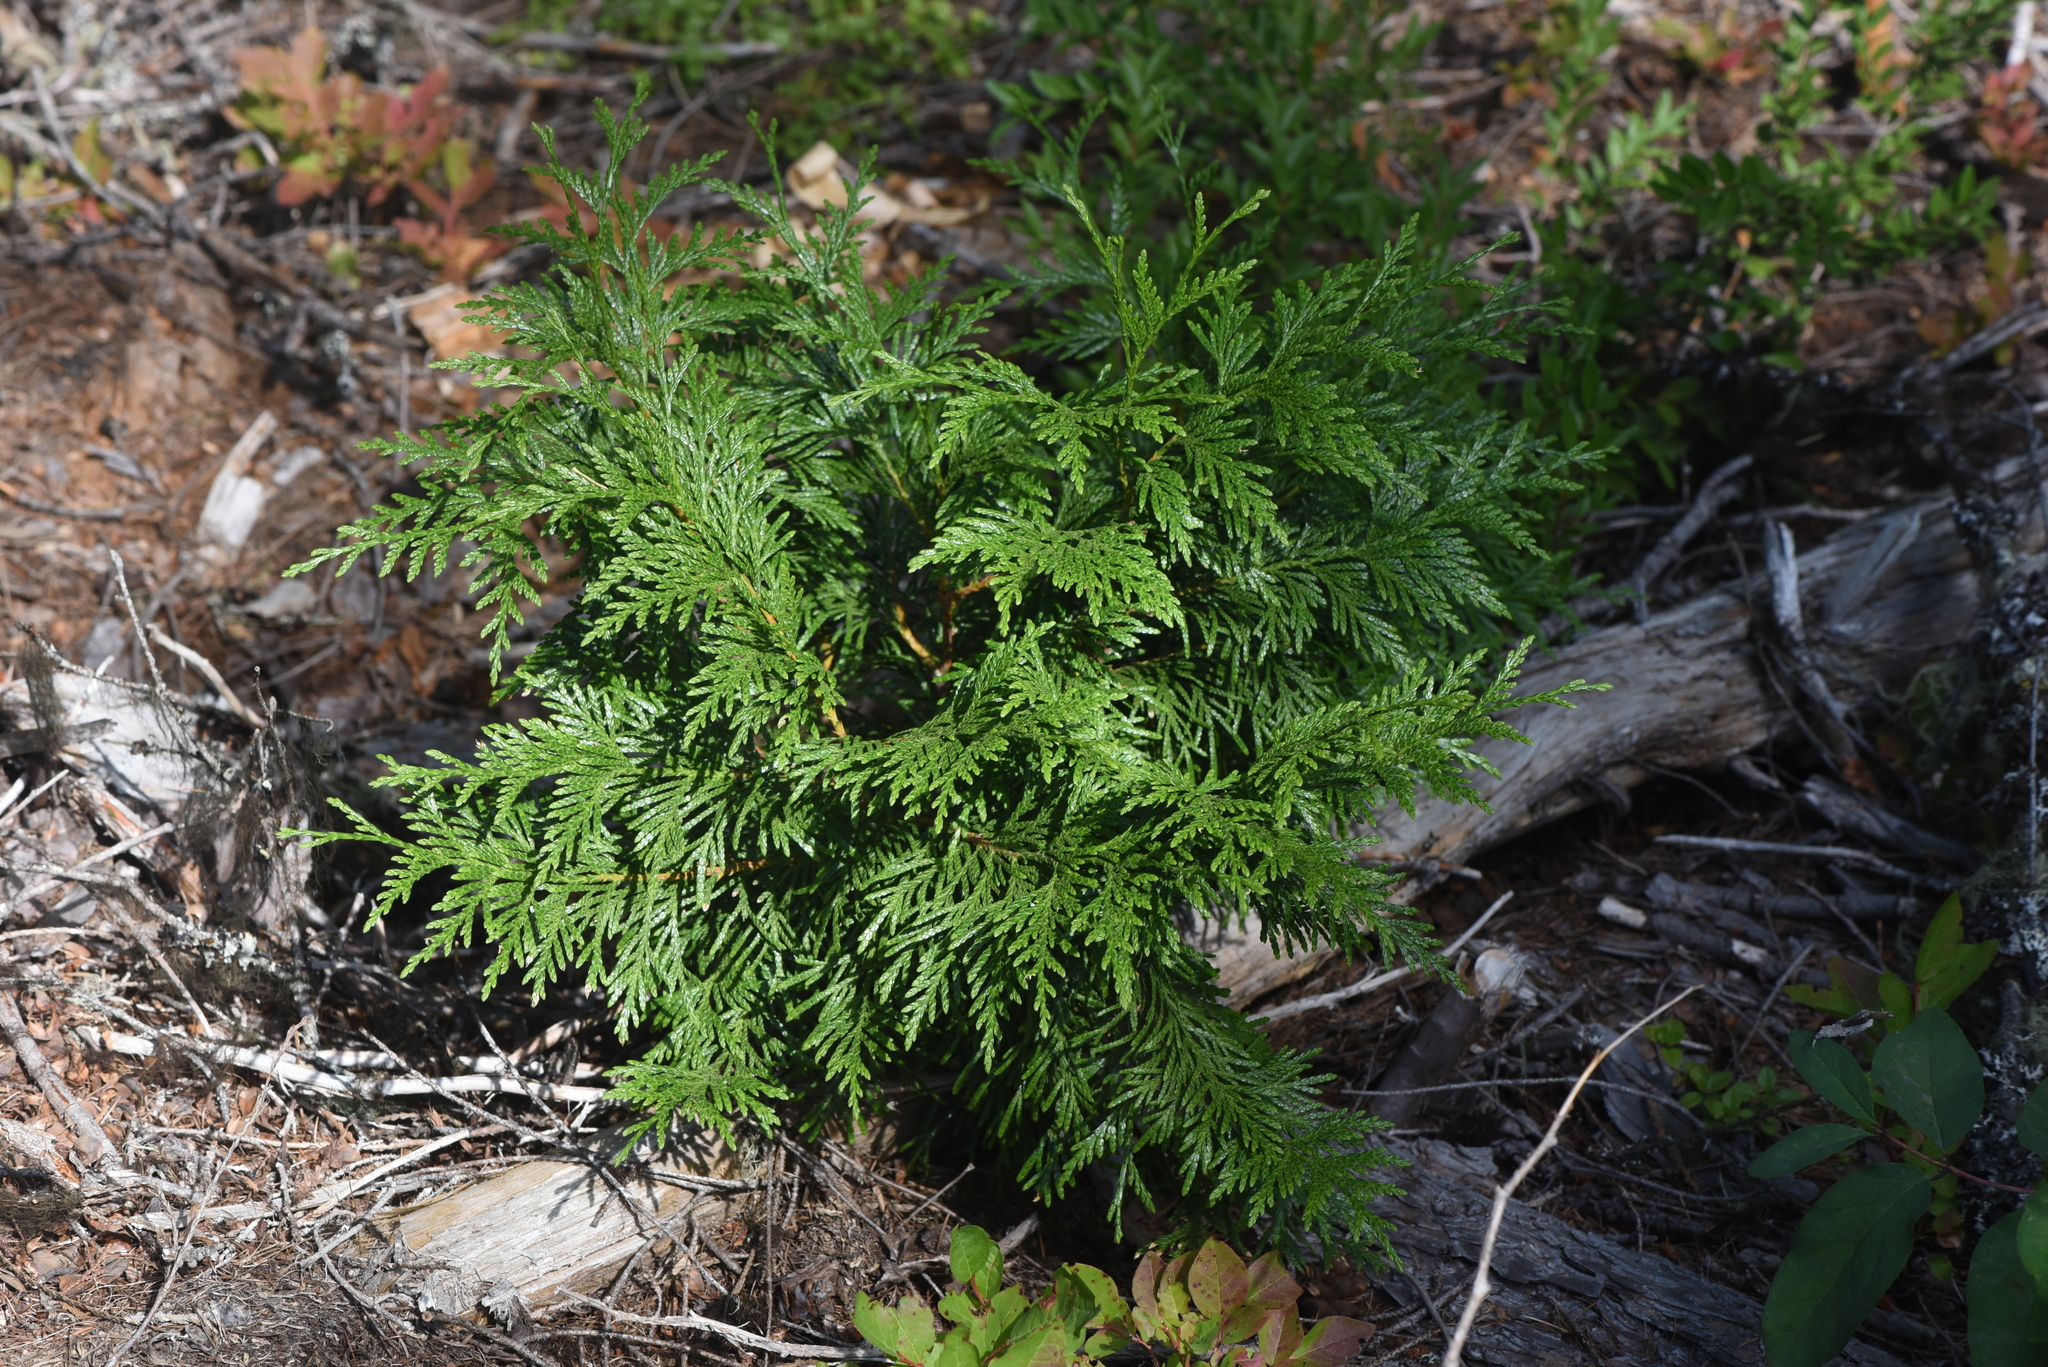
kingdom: Plantae
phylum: Tracheophyta
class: Pinopsida
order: Pinales
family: Cupressaceae
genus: Thuja
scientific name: Thuja plicata
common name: Western red-cedar
